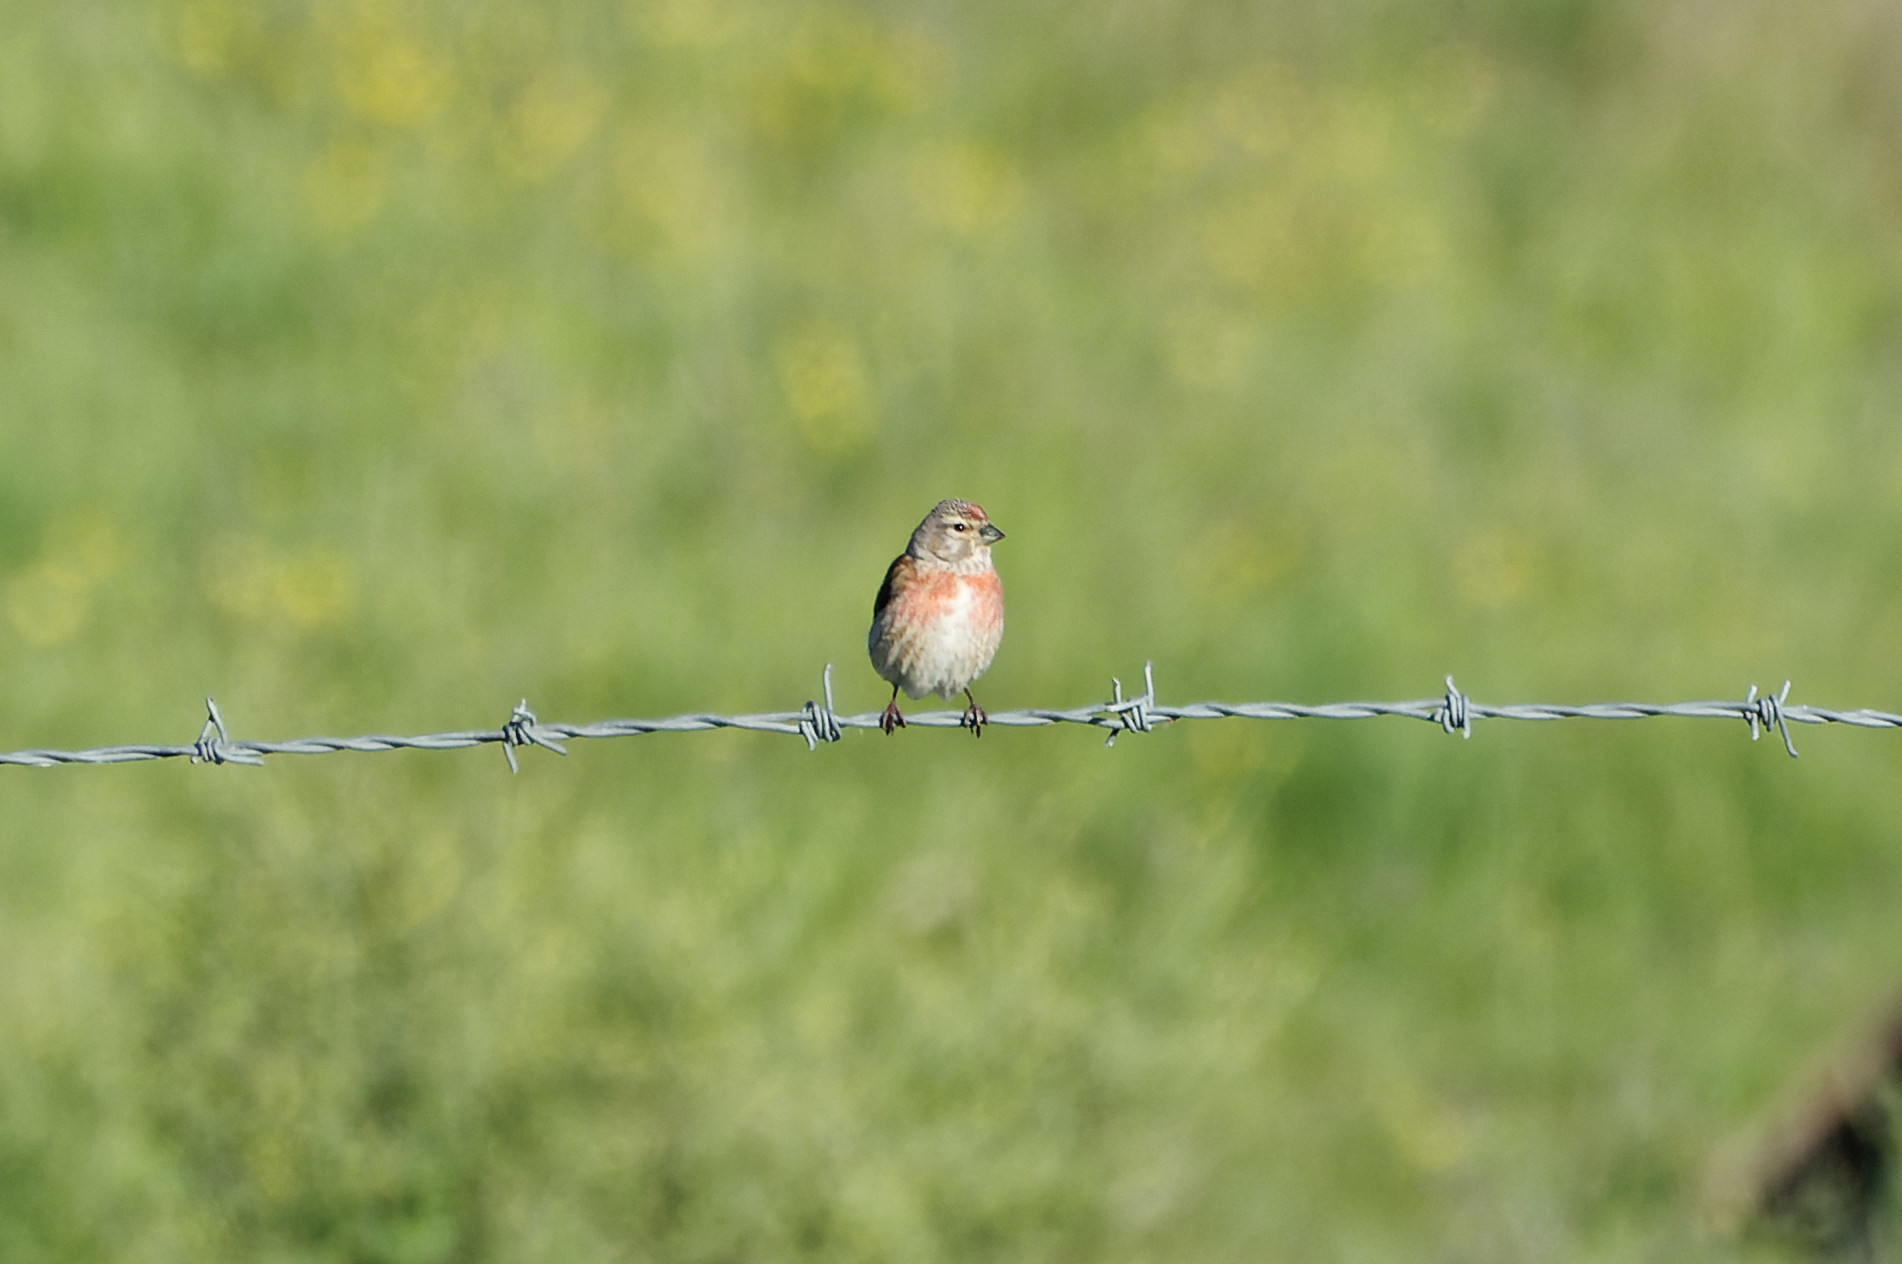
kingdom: Animalia
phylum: Chordata
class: Aves
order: Passeriformes
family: Fringillidae
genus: Linaria
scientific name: Linaria cannabina
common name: Common linnet
